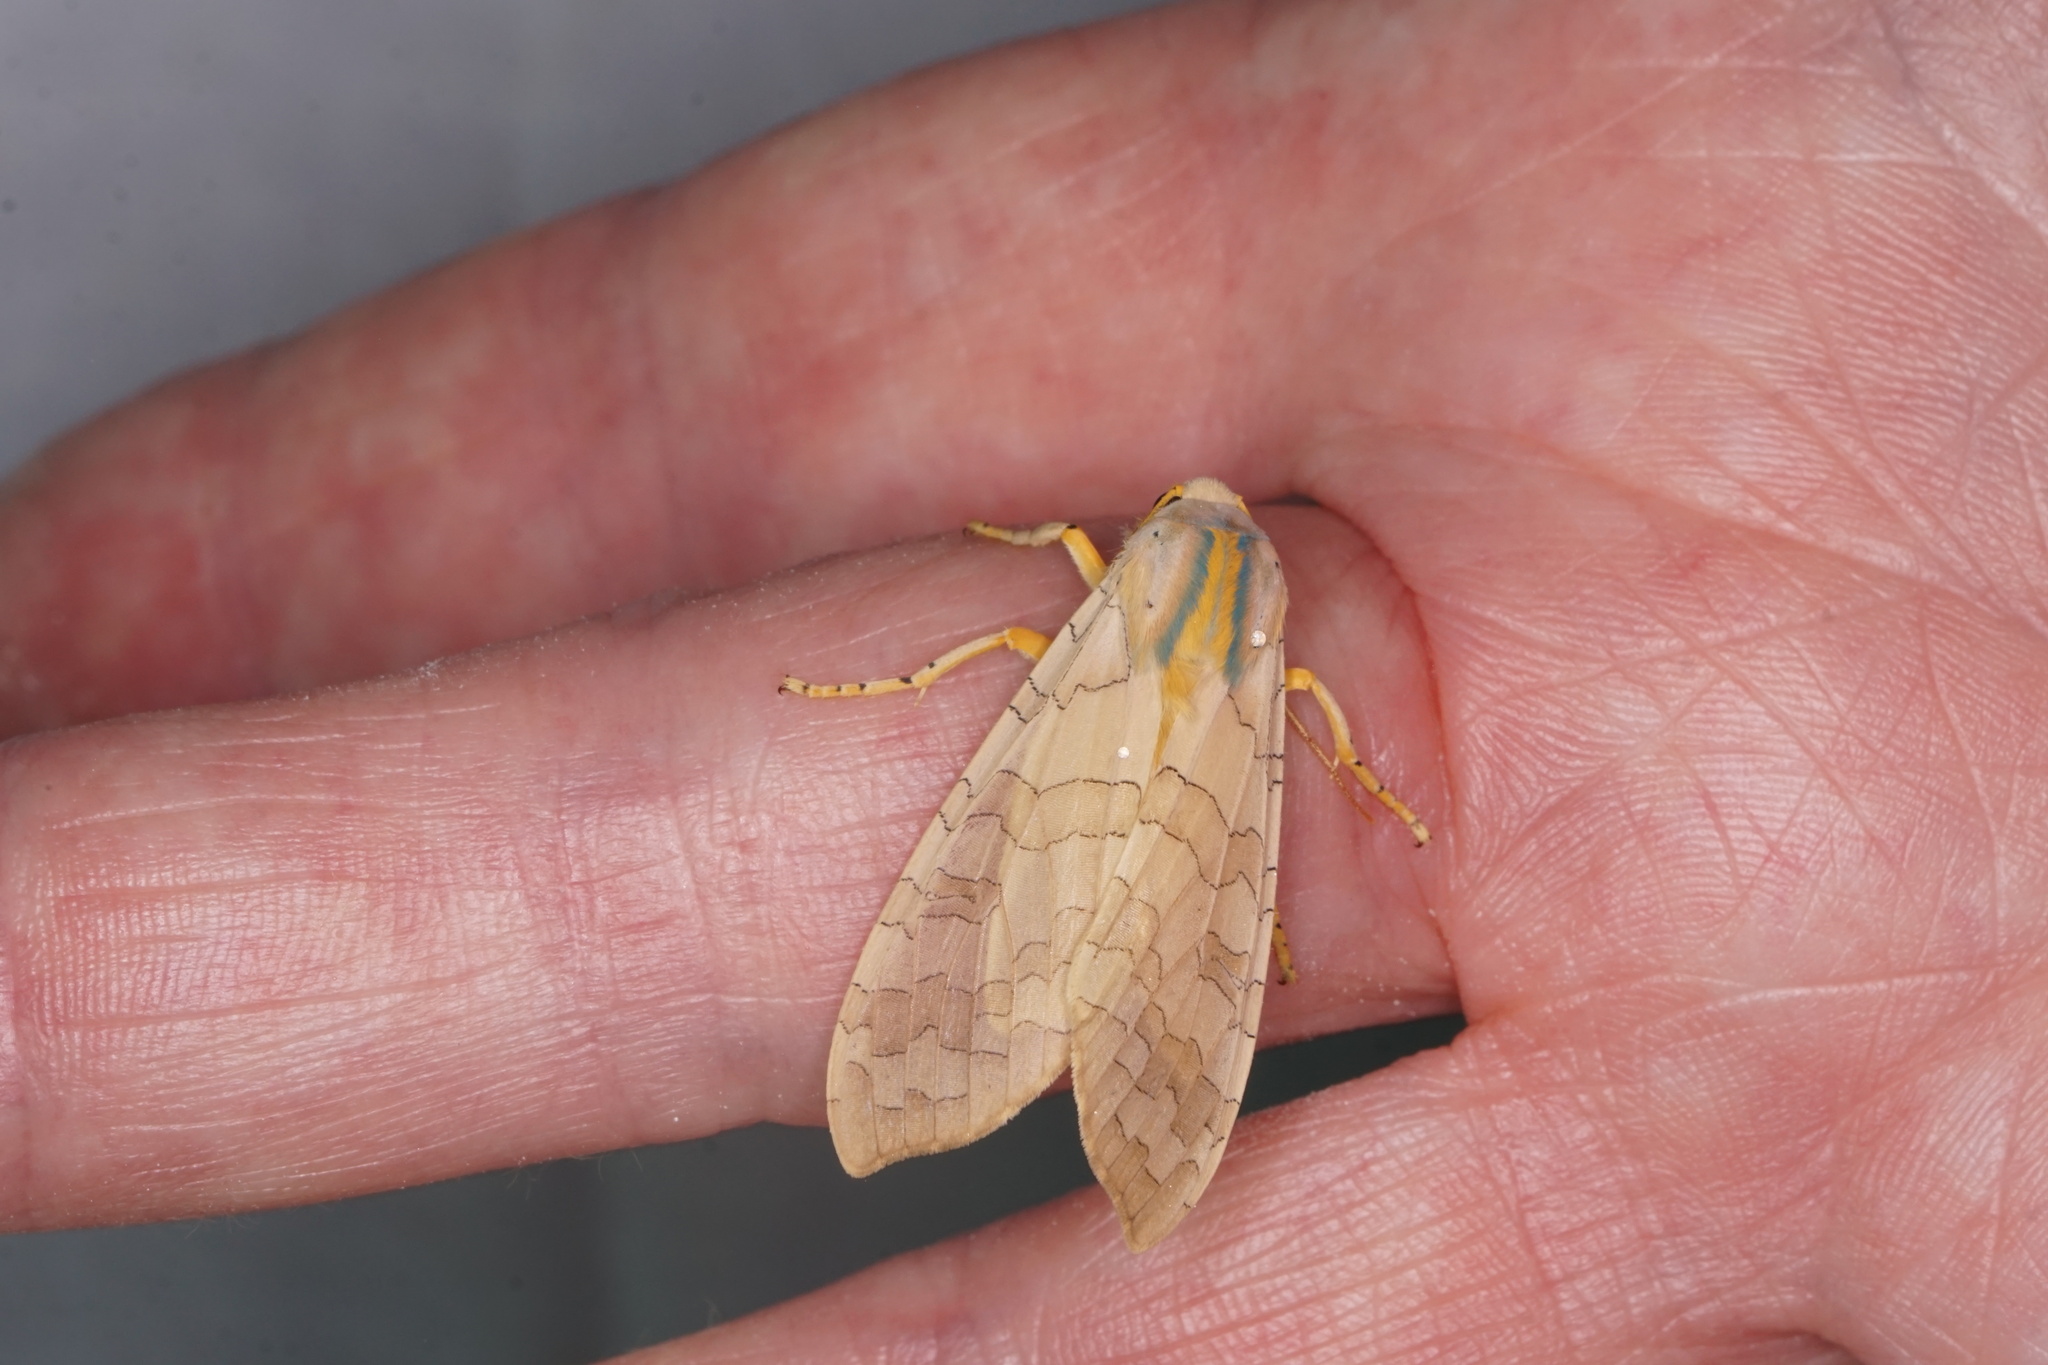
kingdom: Animalia
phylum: Arthropoda
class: Insecta
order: Lepidoptera
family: Erebidae
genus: Halysidota
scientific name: Halysidota
